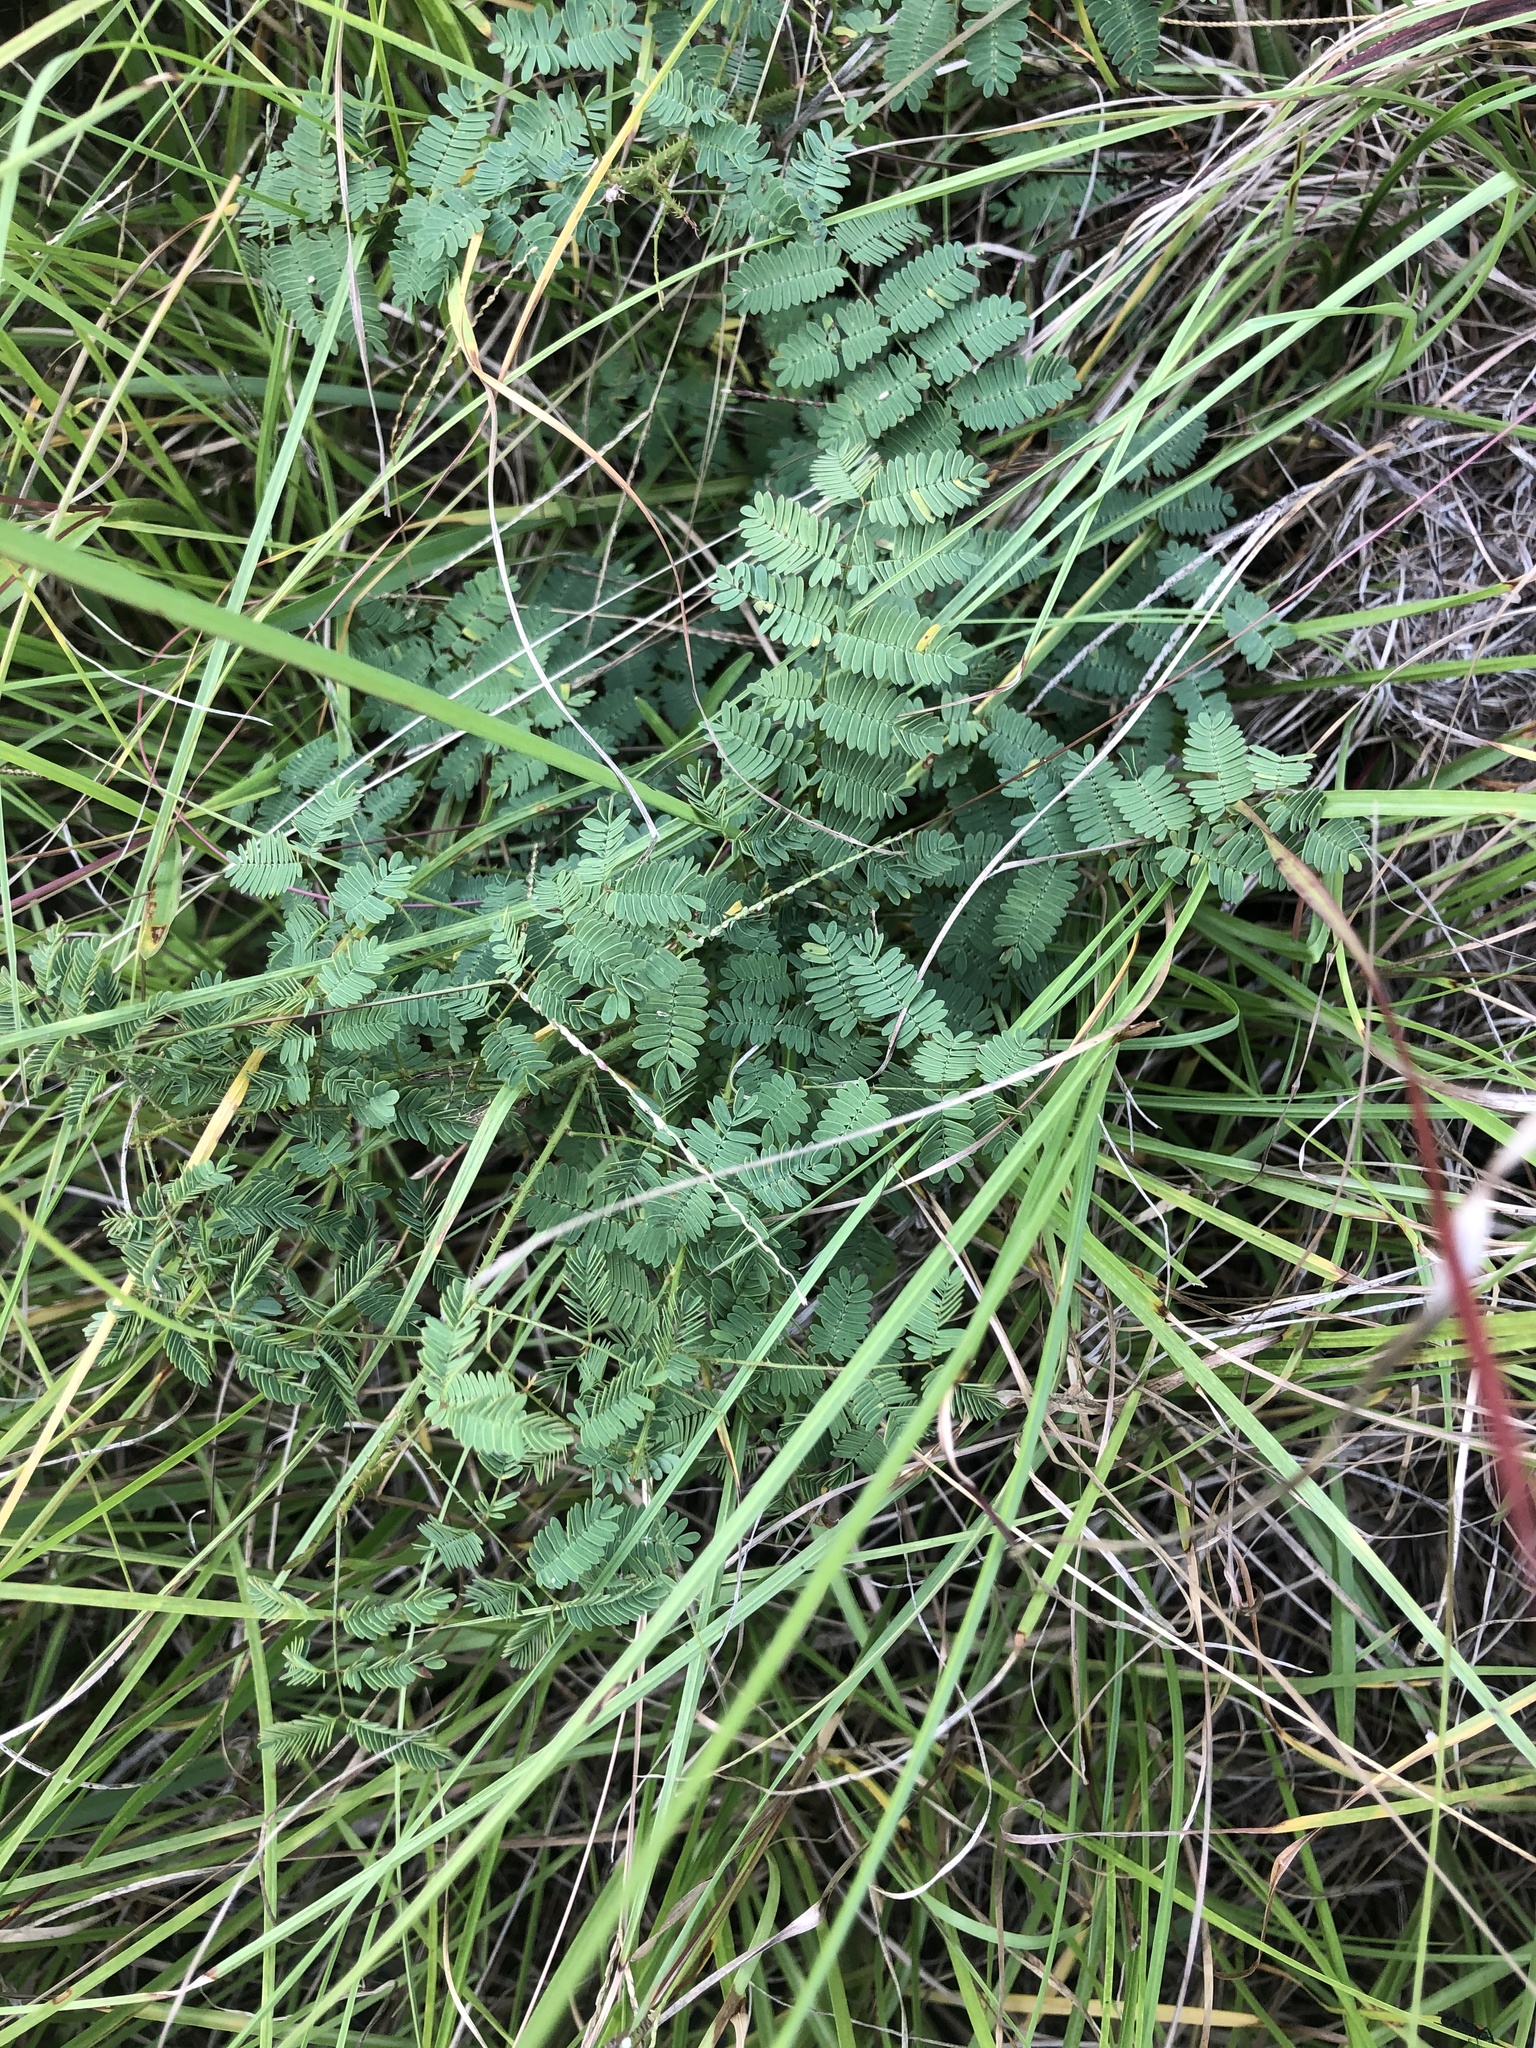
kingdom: Plantae
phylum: Tracheophyta
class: Magnoliopsida
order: Fabales
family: Fabaceae
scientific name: Fabaceae
